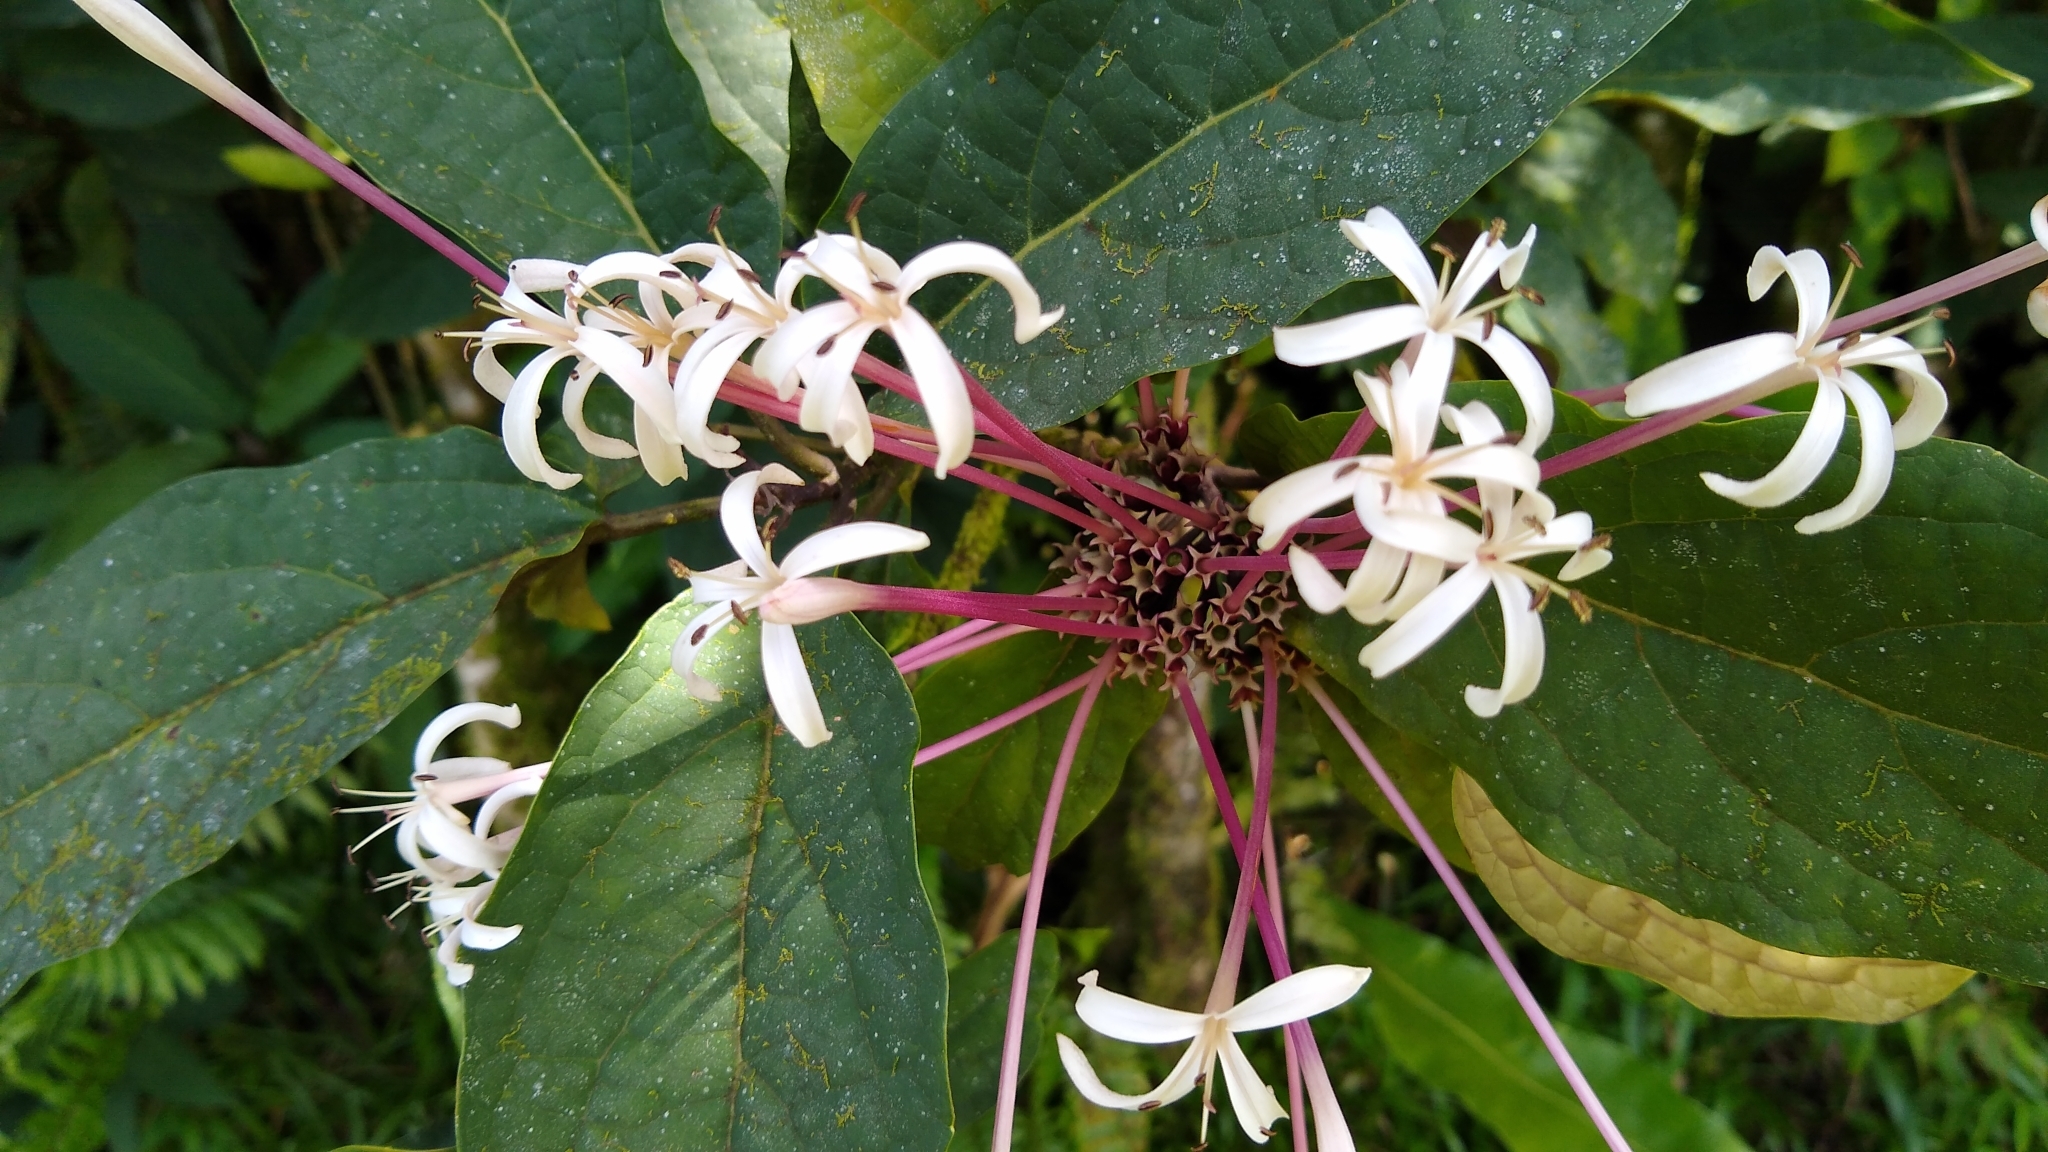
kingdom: Plantae
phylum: Tracheophyta
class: Magnoliopsida
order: Lamiales
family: Lamiaceae
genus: Clerodendrum
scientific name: Clerodendrum quadriloculare
